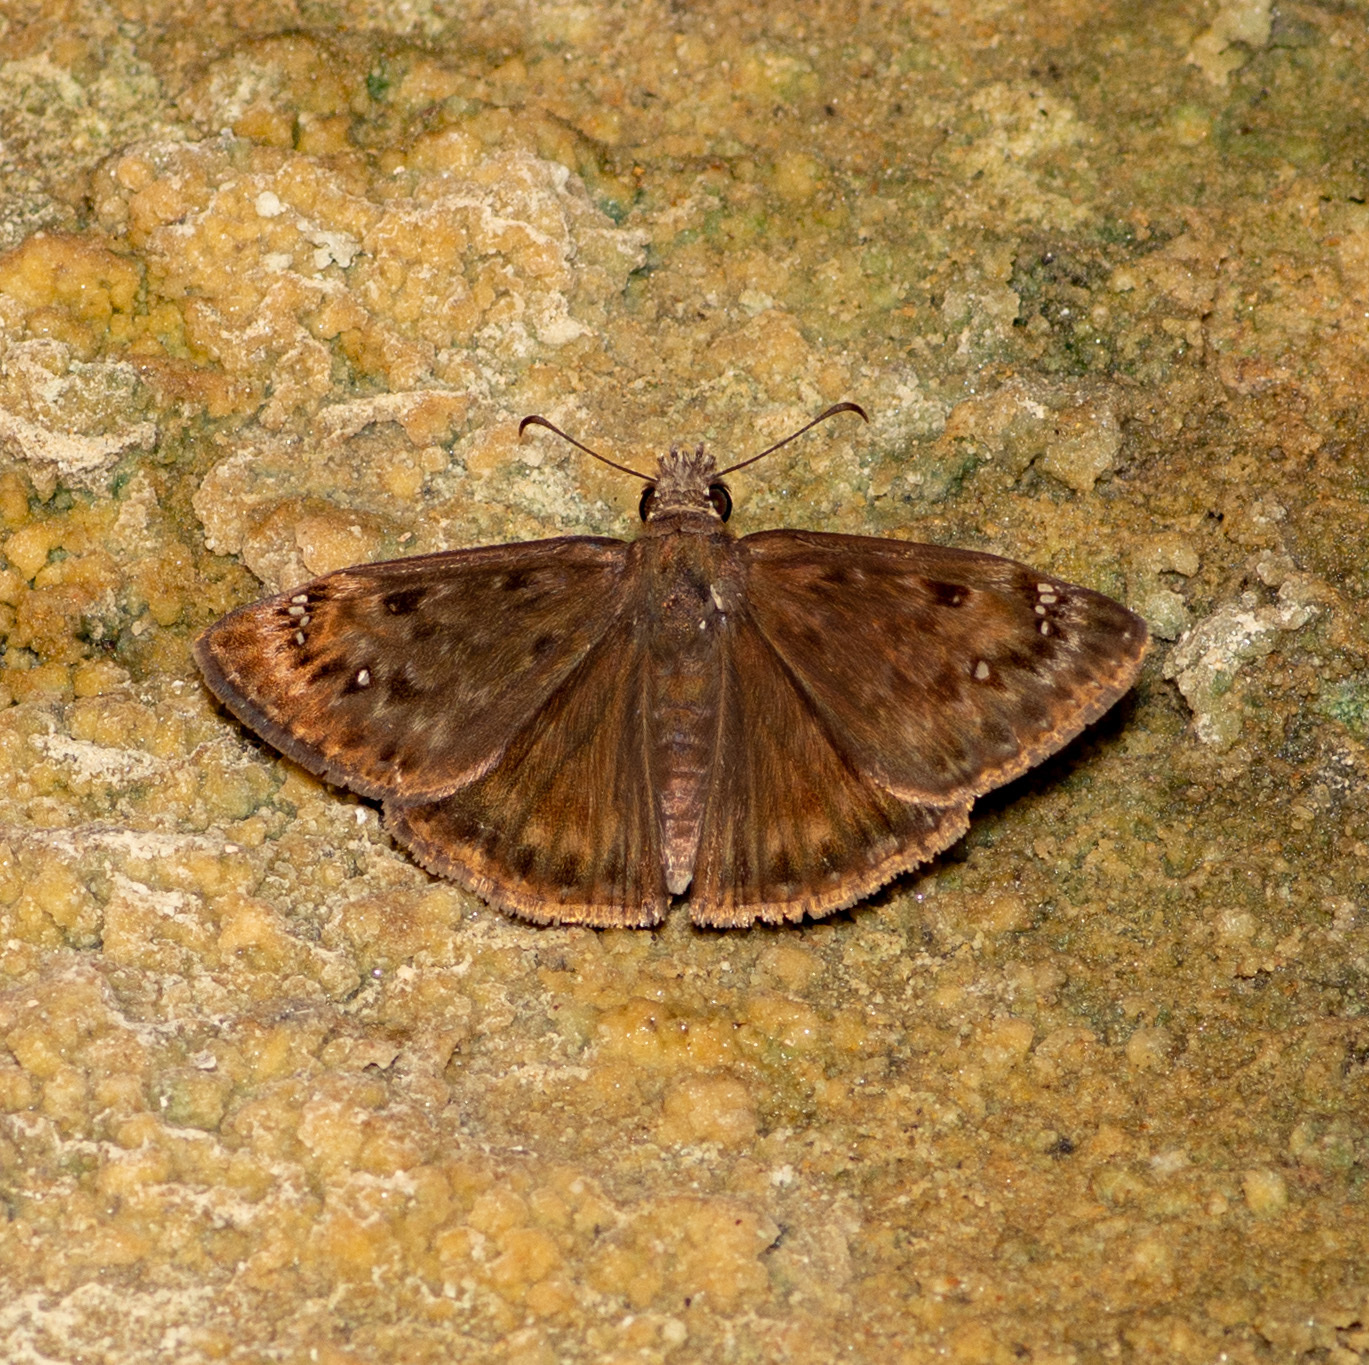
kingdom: Animalia
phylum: Arthropoda
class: Insecta
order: Lepidoptera
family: Hesperiidae
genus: Erynnis
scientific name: Erynnis horatius
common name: Horace's duskywing
